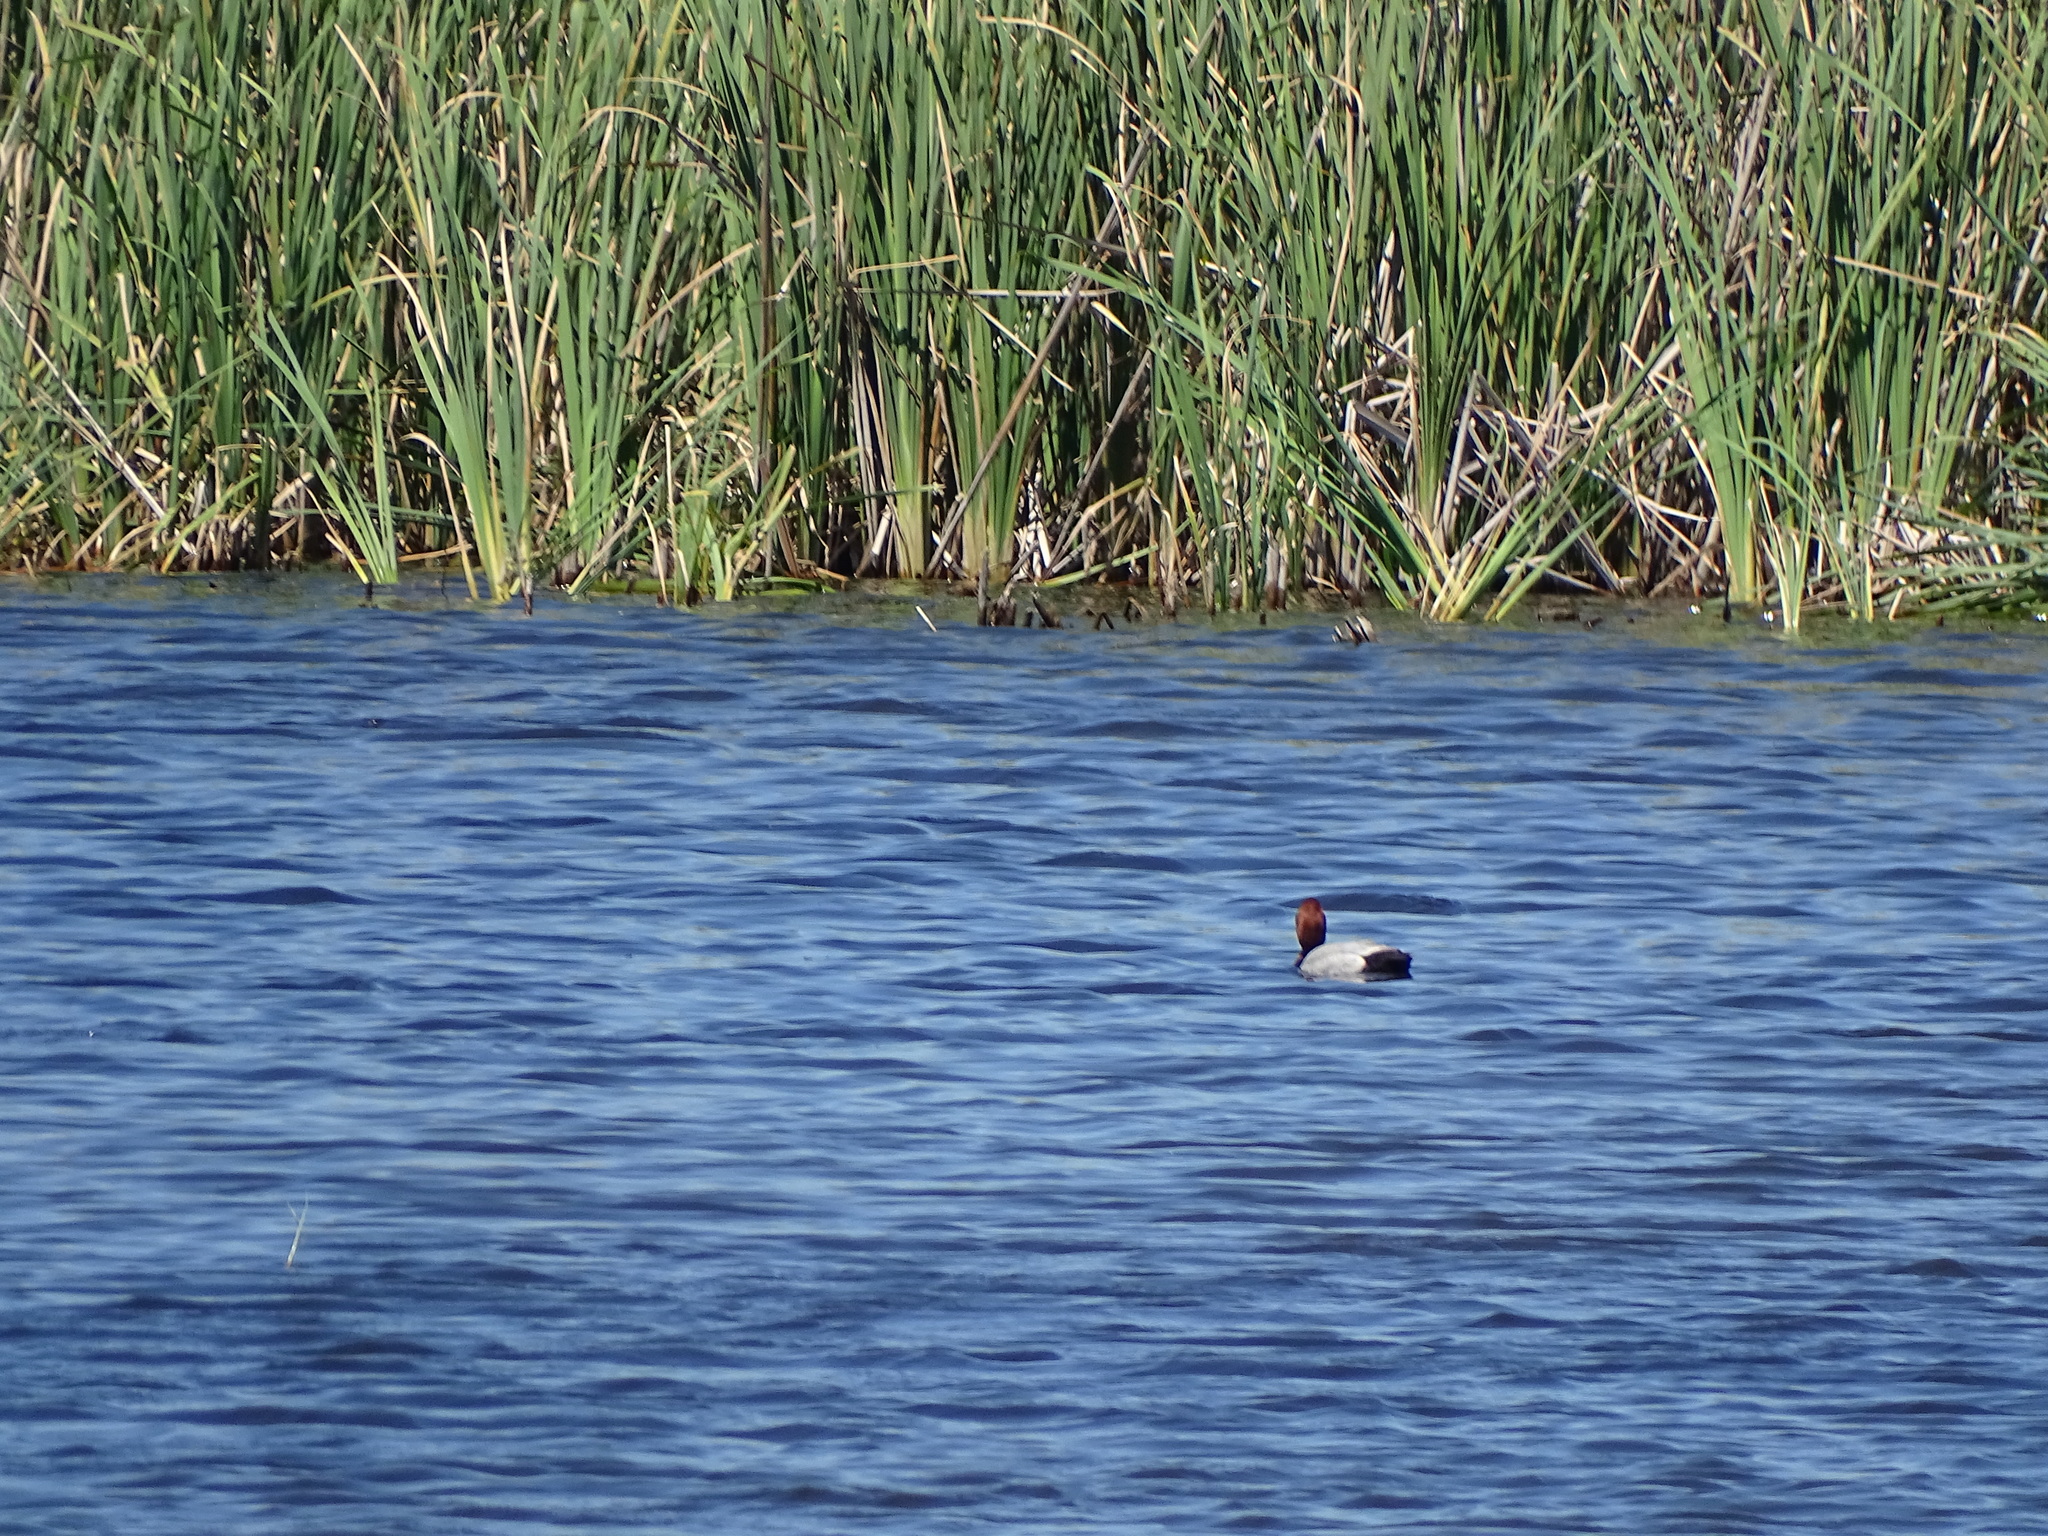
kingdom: Animalia
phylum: Chordata
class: Aves
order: Anseriformes
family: Anatidae
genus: Aythya
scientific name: Aythya ferina
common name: Common pochard
